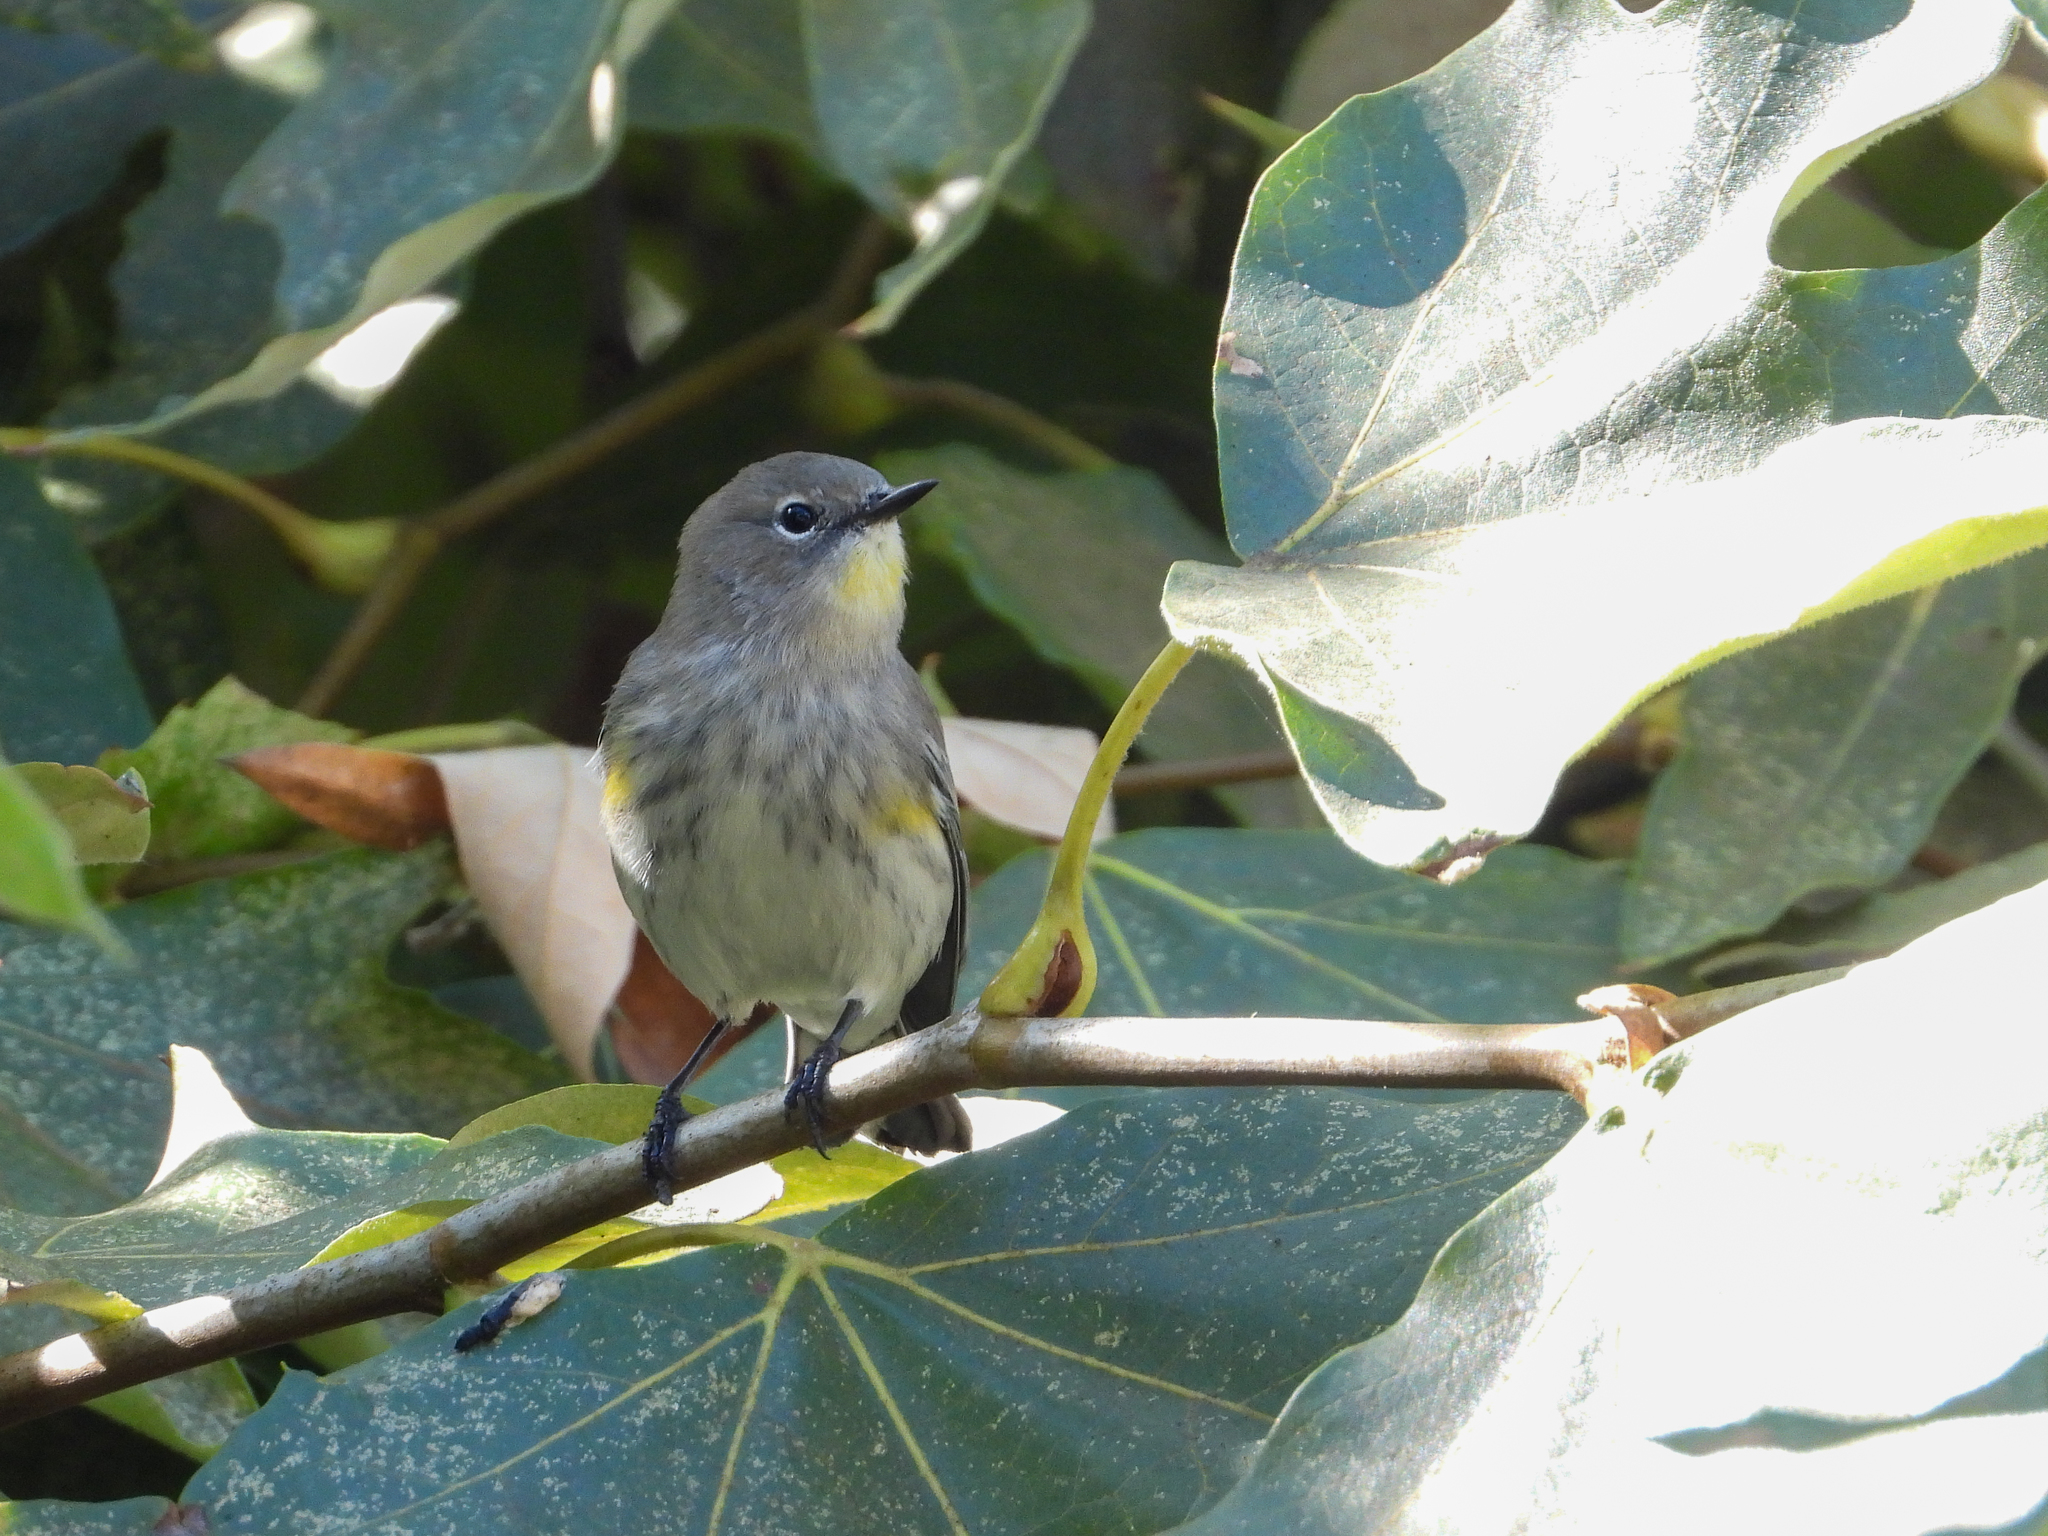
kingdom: Animalia
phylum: Chordata
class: Aves
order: Passeriformes
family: Parulidae
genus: Setophaga
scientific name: Setophaga coronata
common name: Myrtle warbler
